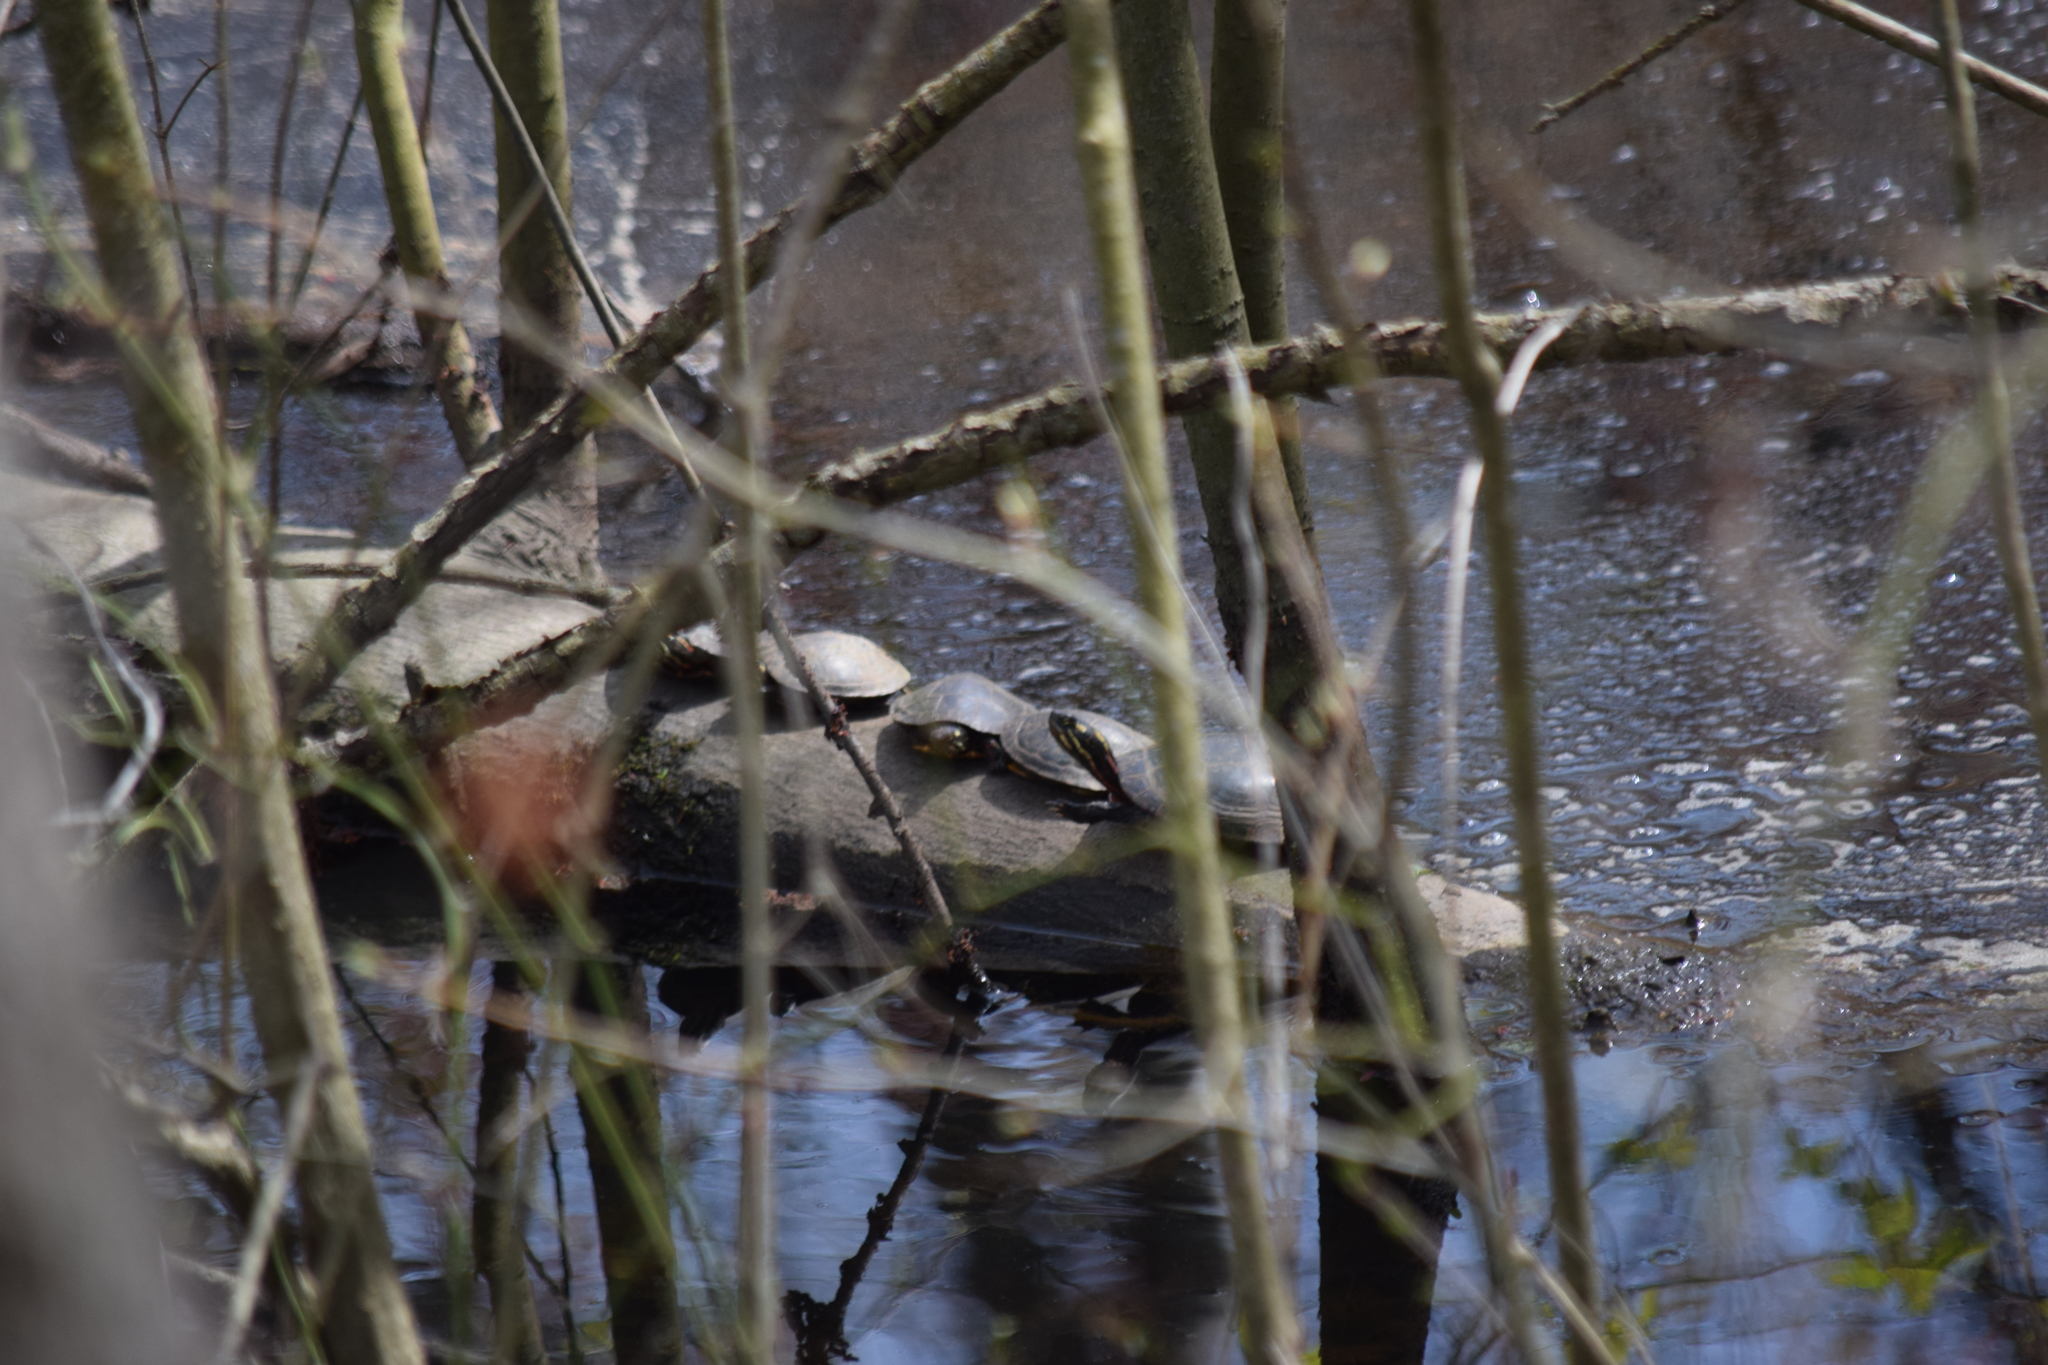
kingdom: Animalia
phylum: Chordata
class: Testudines
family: Emydidae
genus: Chrysemys
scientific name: Chrysemys picta
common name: Painted turtle
